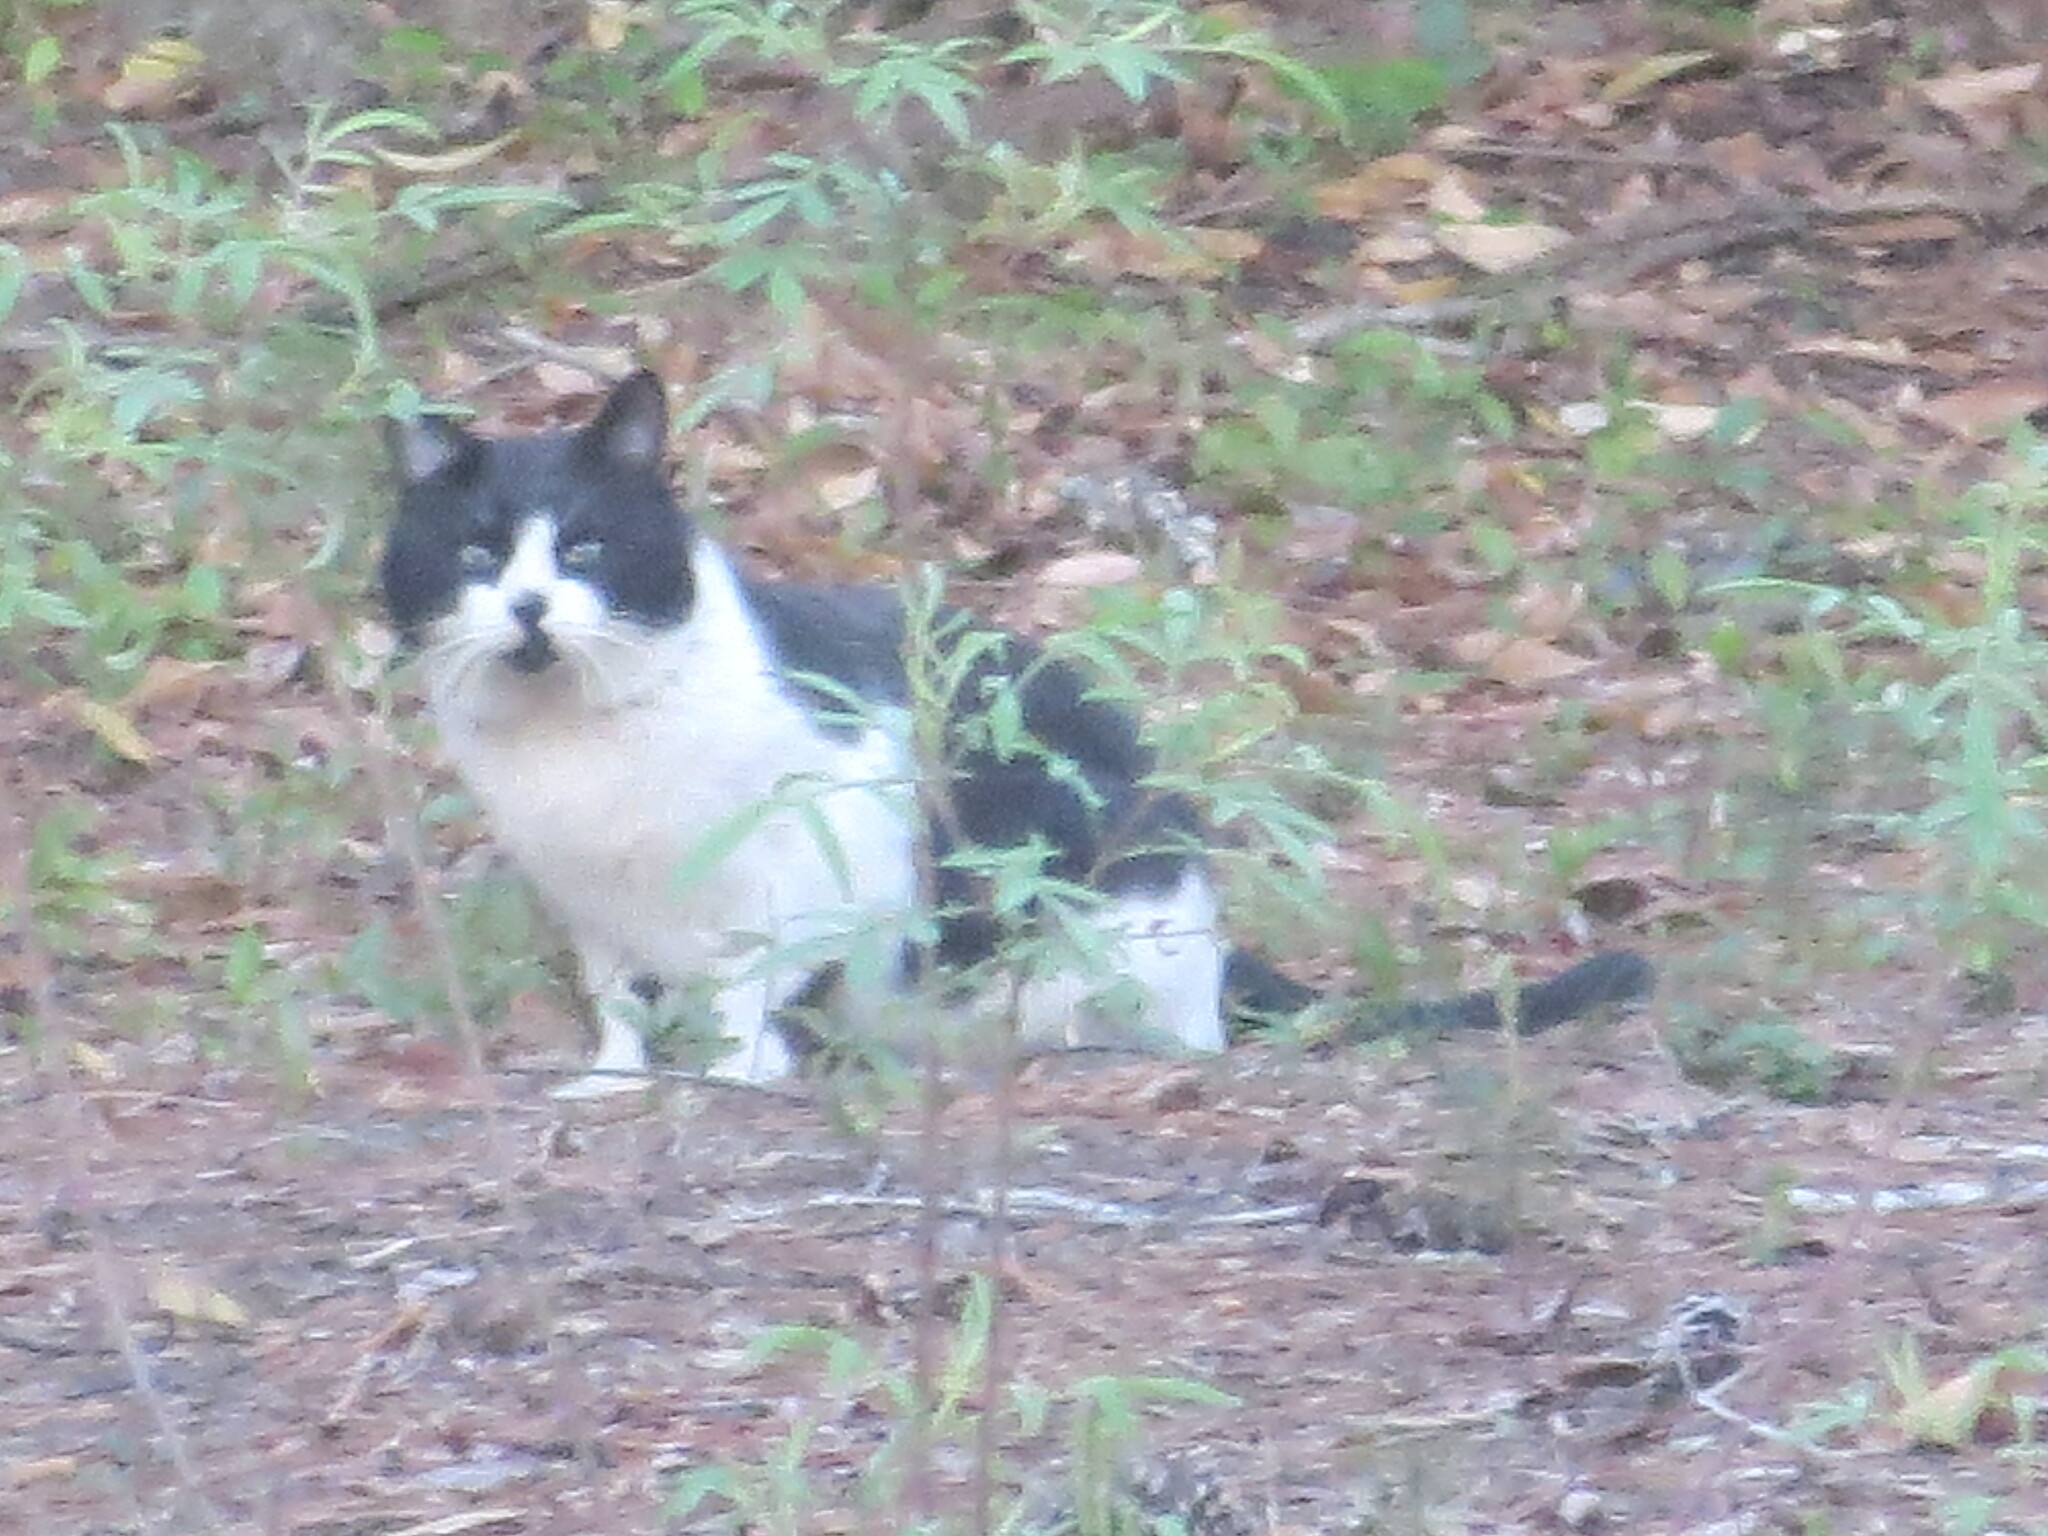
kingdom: Animalia
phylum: Chordata
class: Mammalia
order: Carnivora
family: Felidae
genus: Felis
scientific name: Felis catus
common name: Domestic cat
